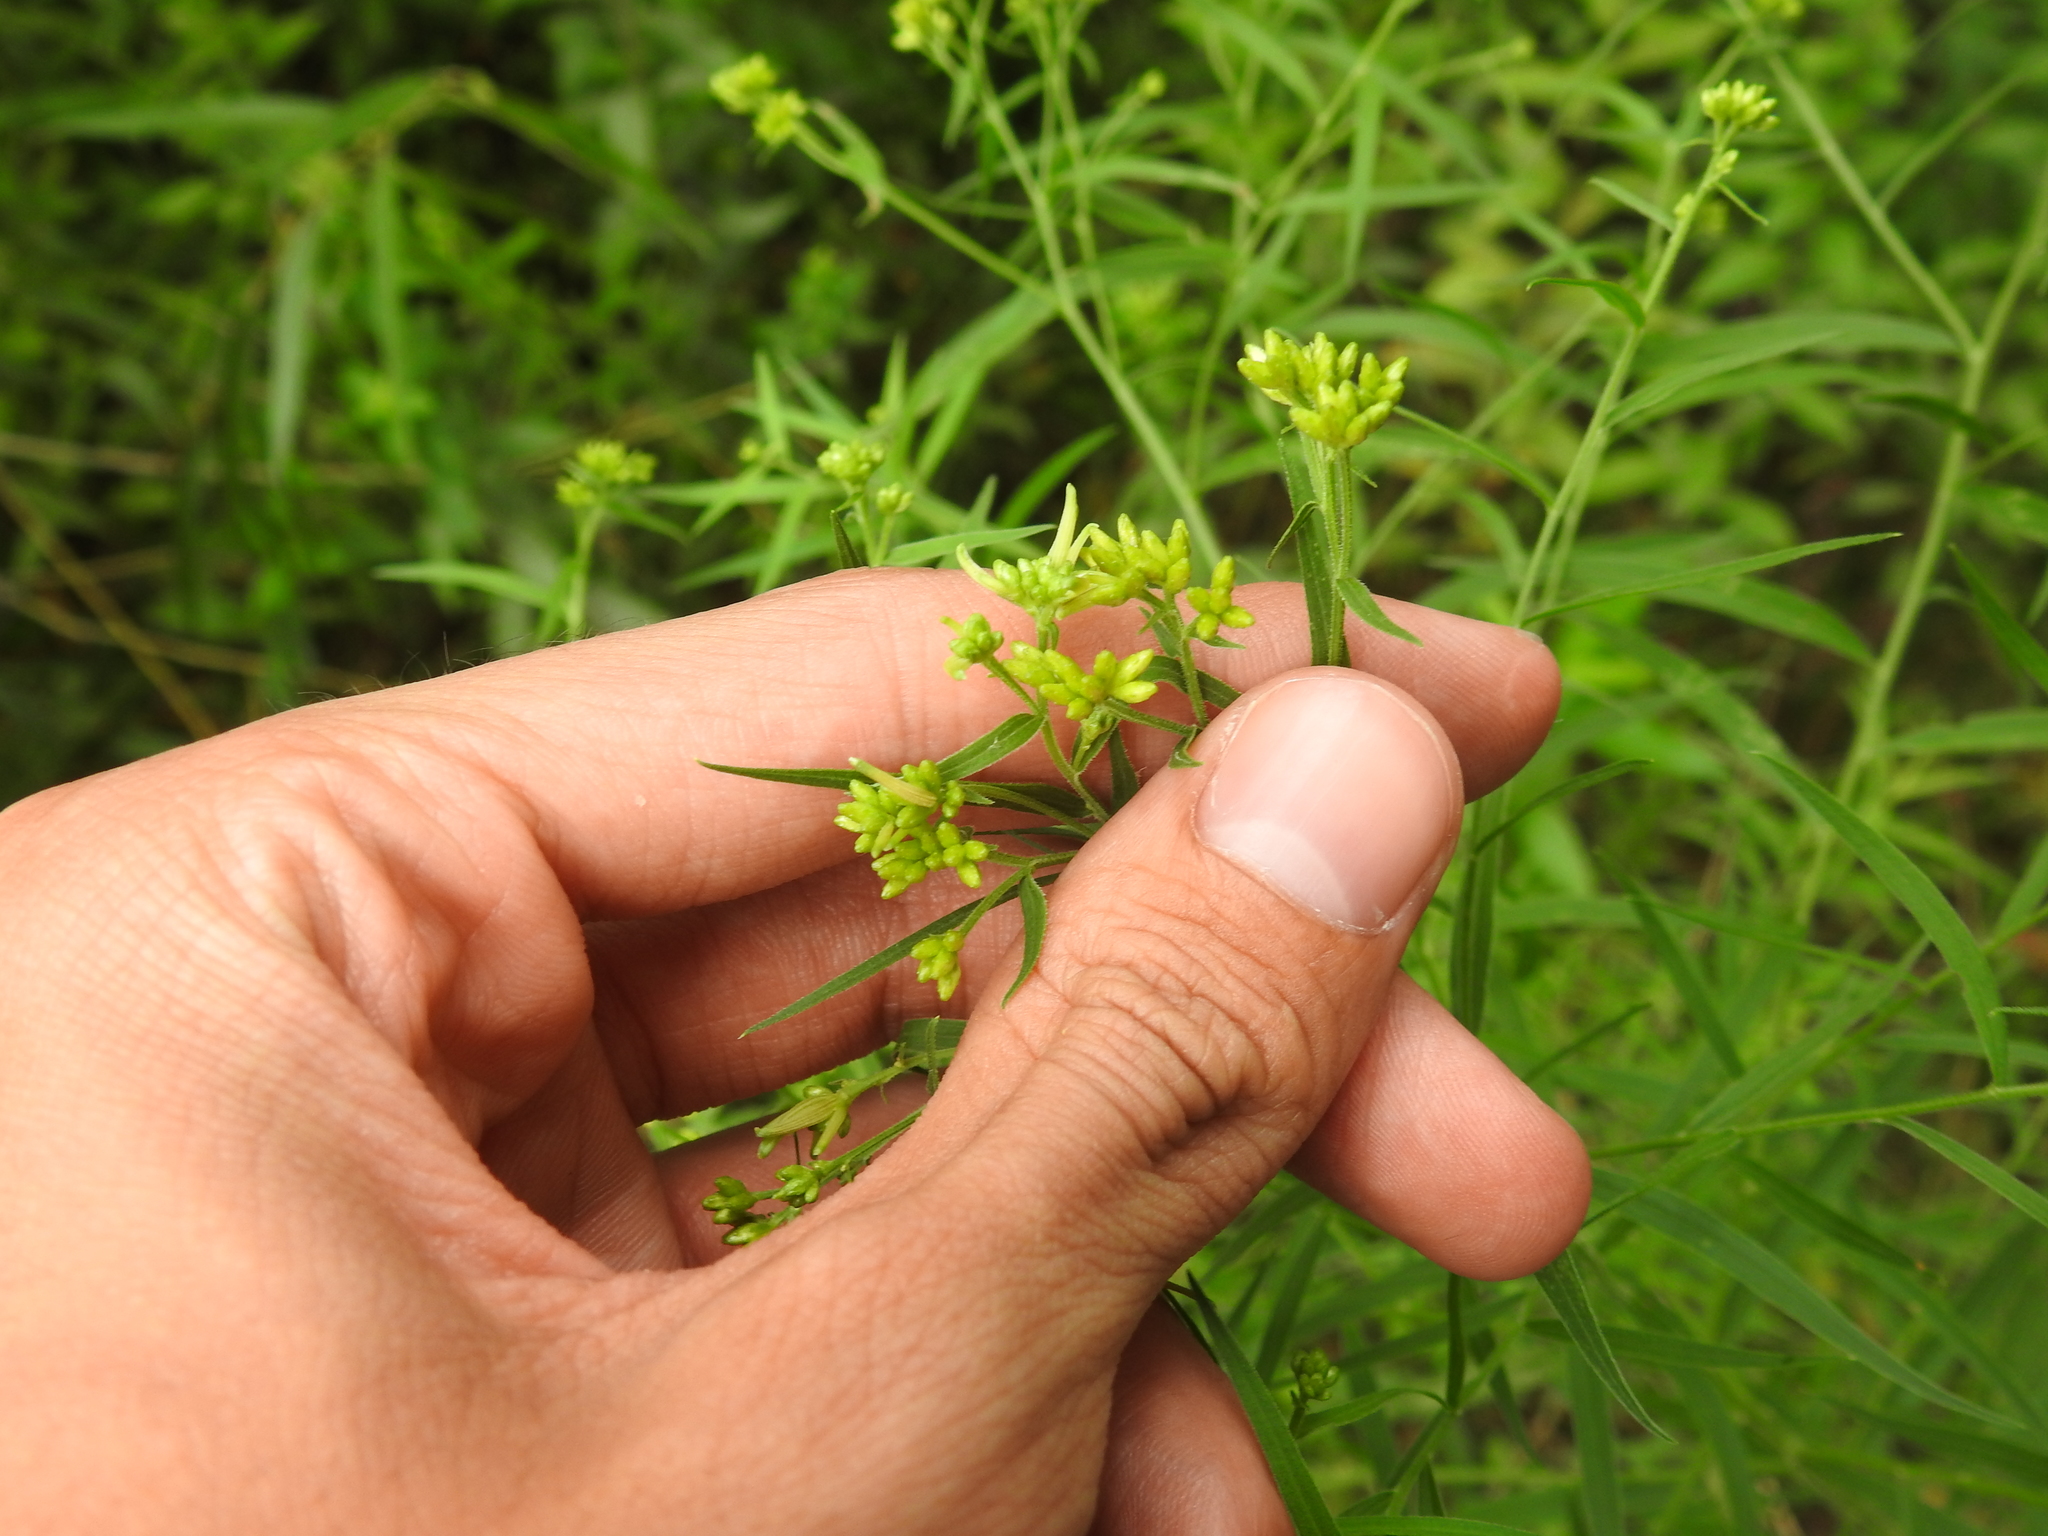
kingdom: Animalia
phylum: Arthropoda
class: Insecta
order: Diptera
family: Cecidomyiidae
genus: Rhopalomyia
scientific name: Rhopalomyia fusiformae
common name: Goldentop sessile gall midge
